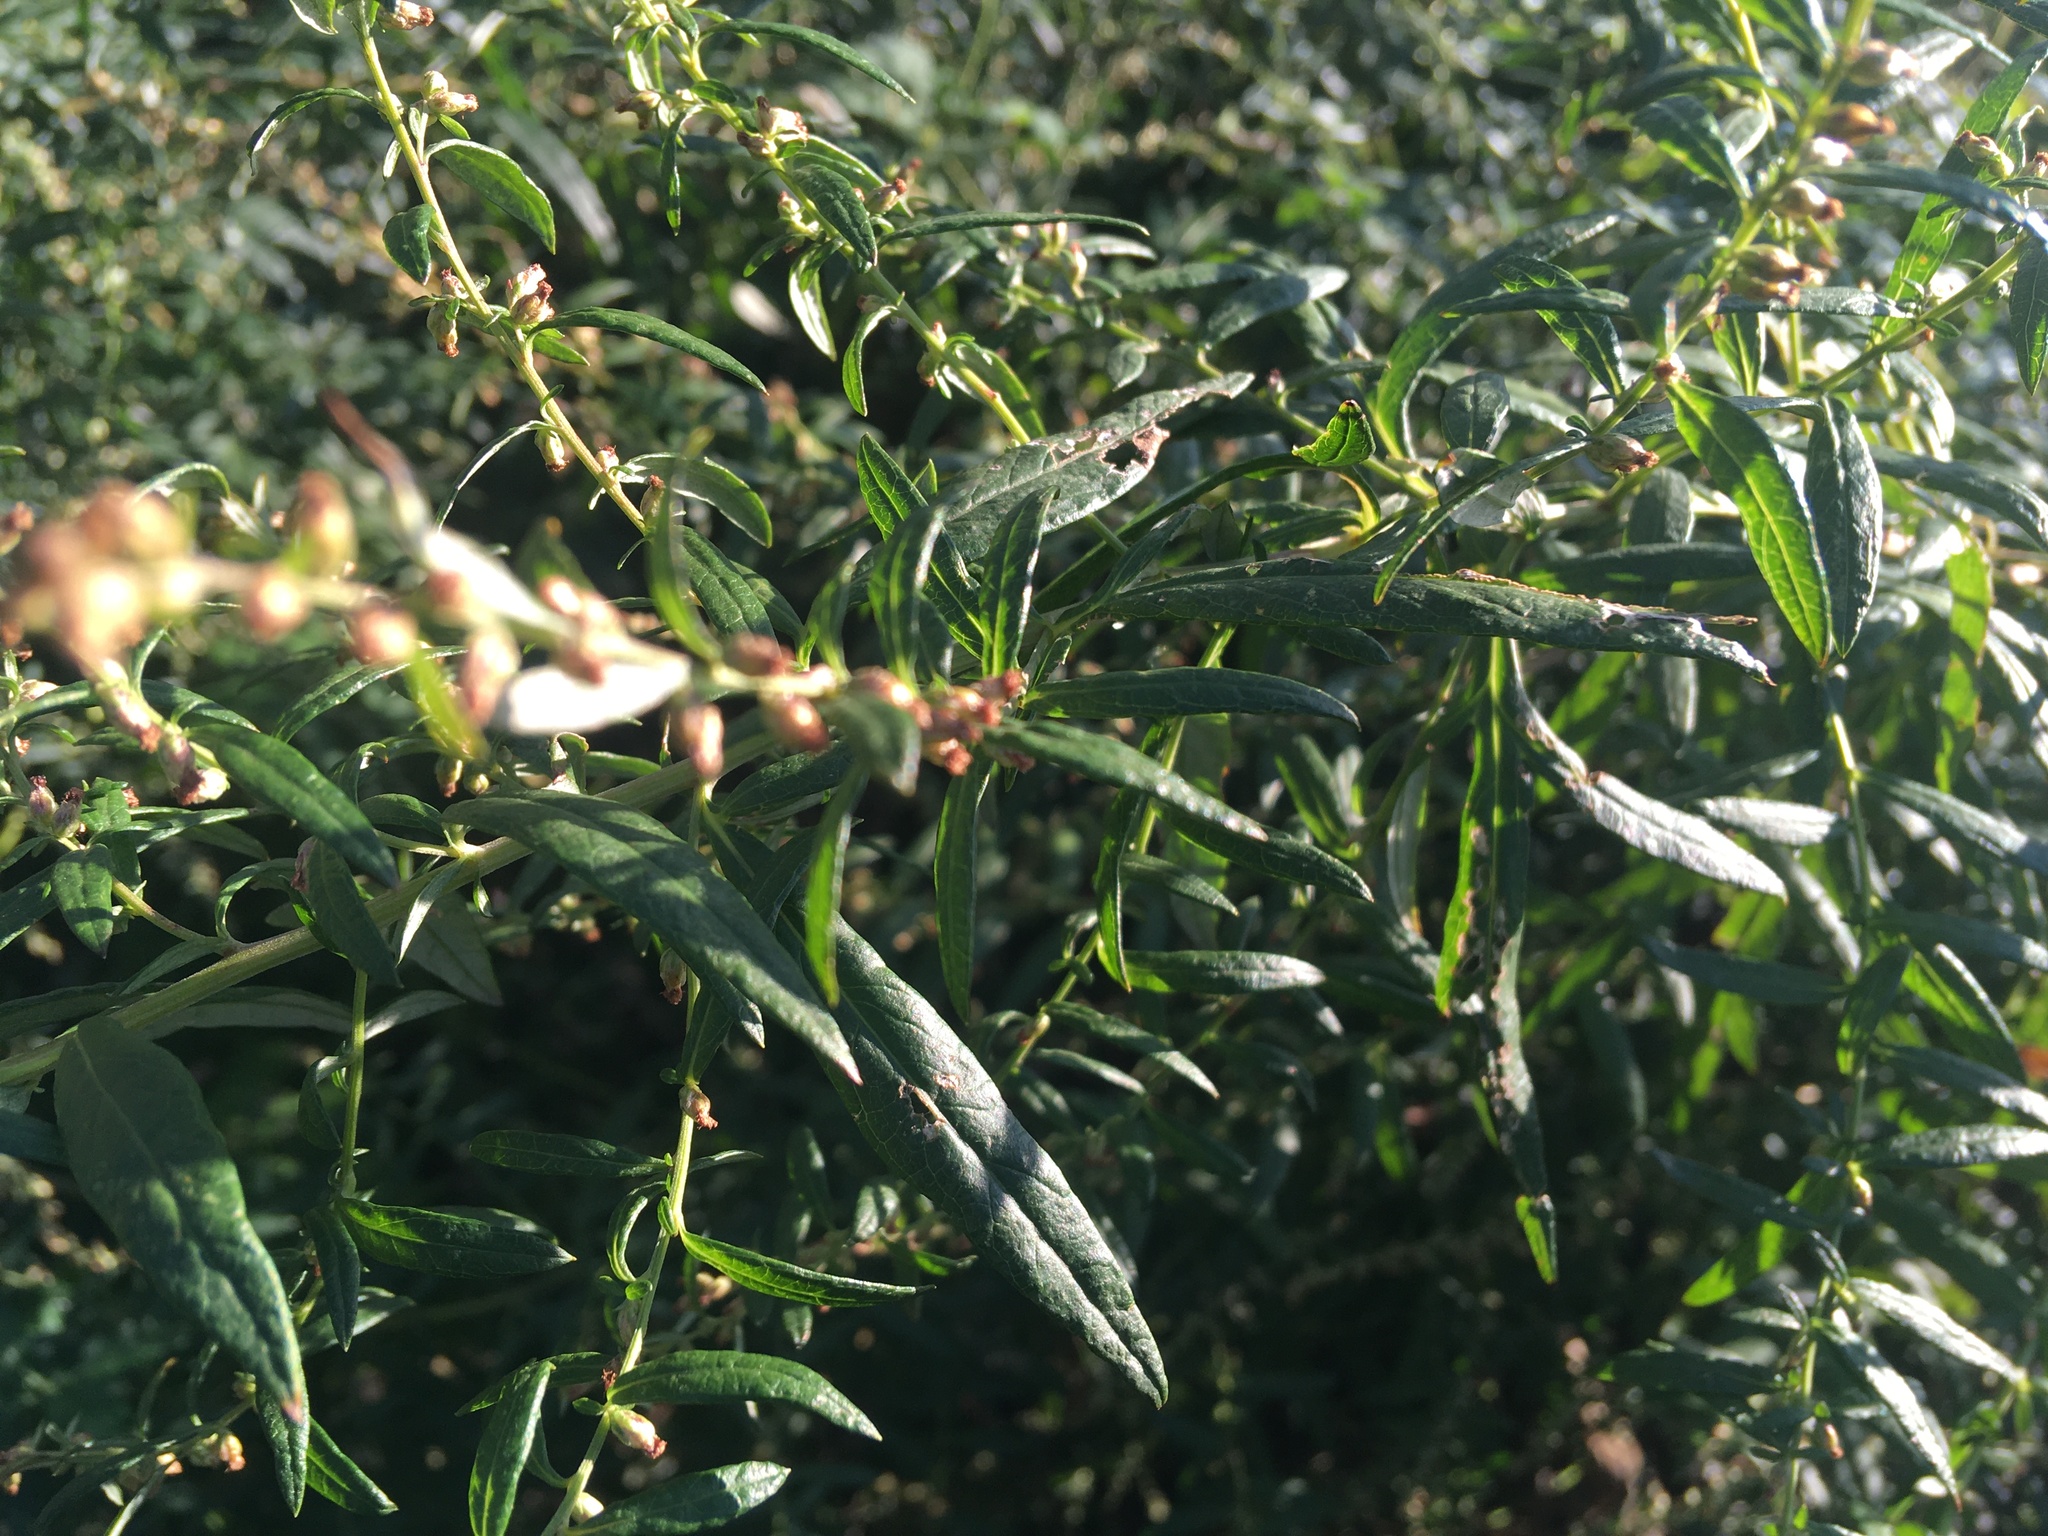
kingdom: Plantae
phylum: Tracheophyta
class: Magnoliopsida
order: Asterales
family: Asteraceae
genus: Artemisia
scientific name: Artemisia vulgaris
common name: Mugwort
